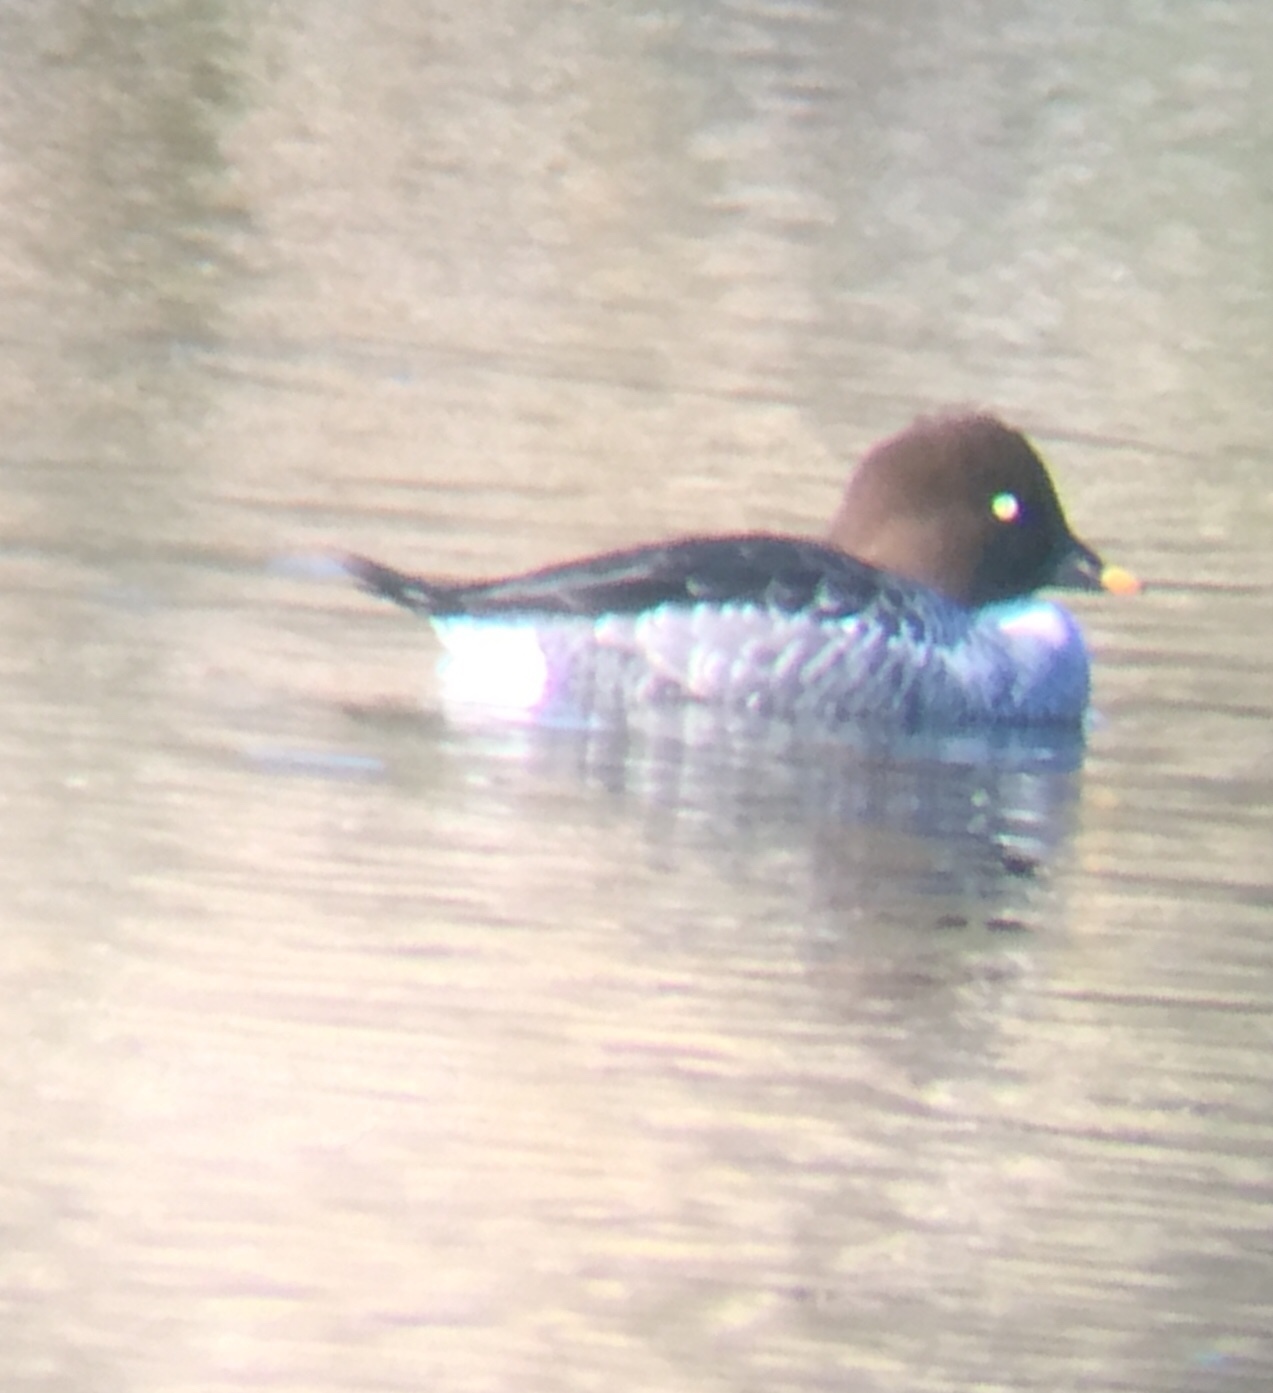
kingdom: Animalia
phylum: Chordata
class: Aves
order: Anseriformes
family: Anatidae
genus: Bucephala
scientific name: Bucephala clangula
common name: Common goldeneye
